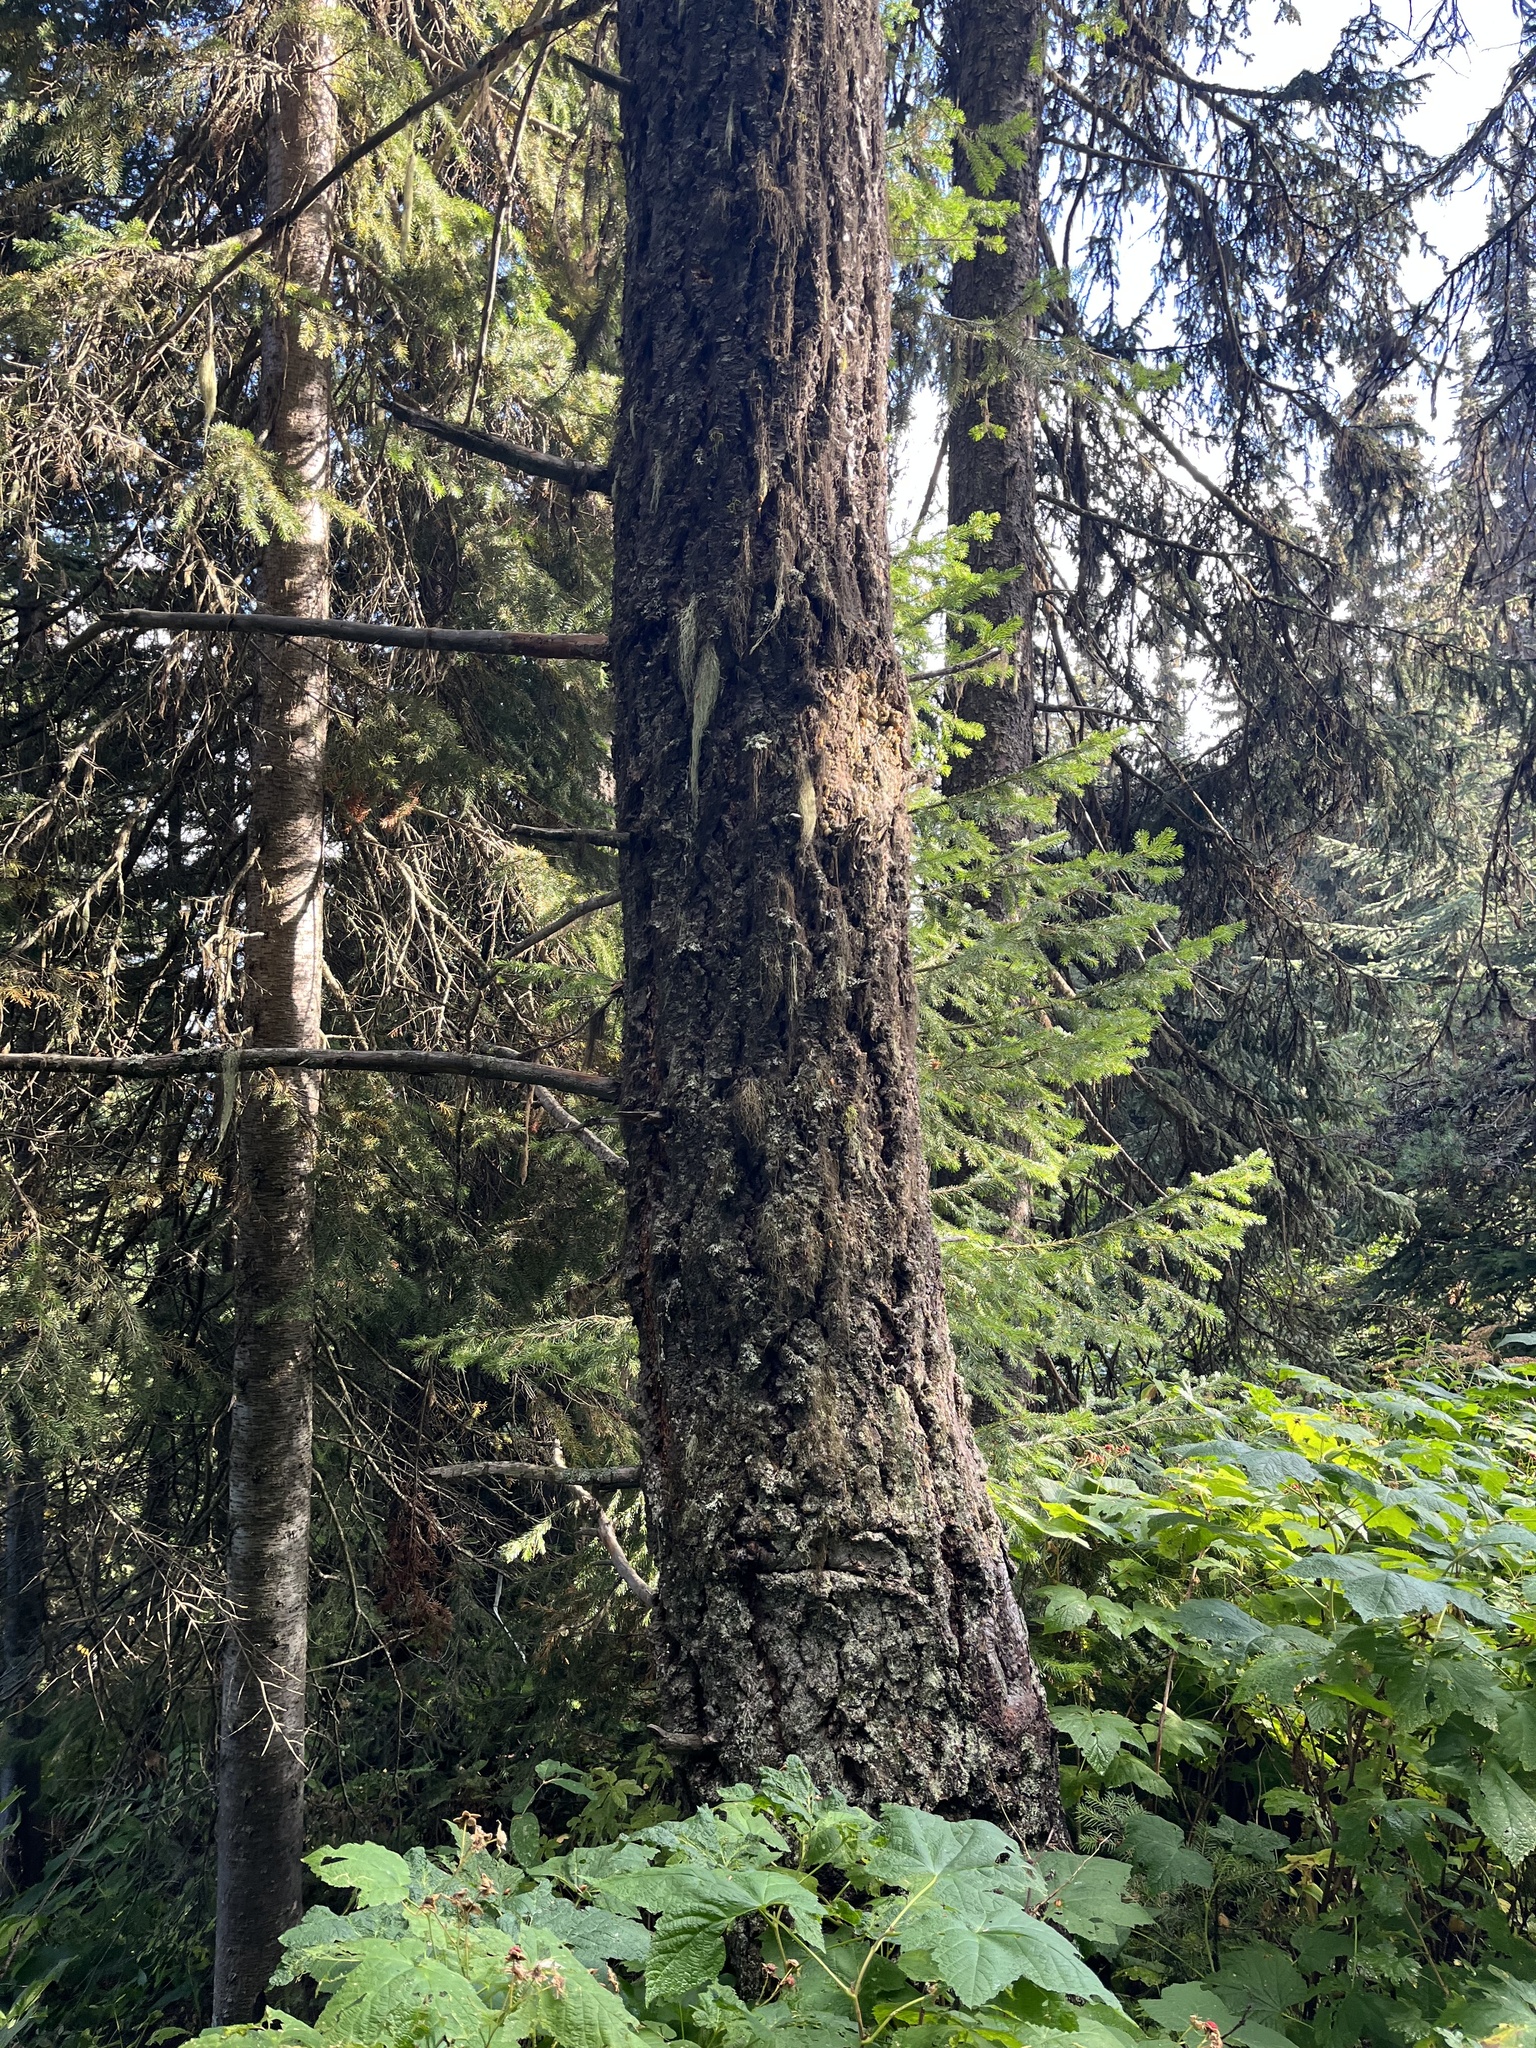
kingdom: Plantae
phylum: Tracheophyta
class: Pinopsida
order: Pinales
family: Pinaceae
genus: Pseudotsuga
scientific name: Pseudotsuga menziesii
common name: Douglas fir
